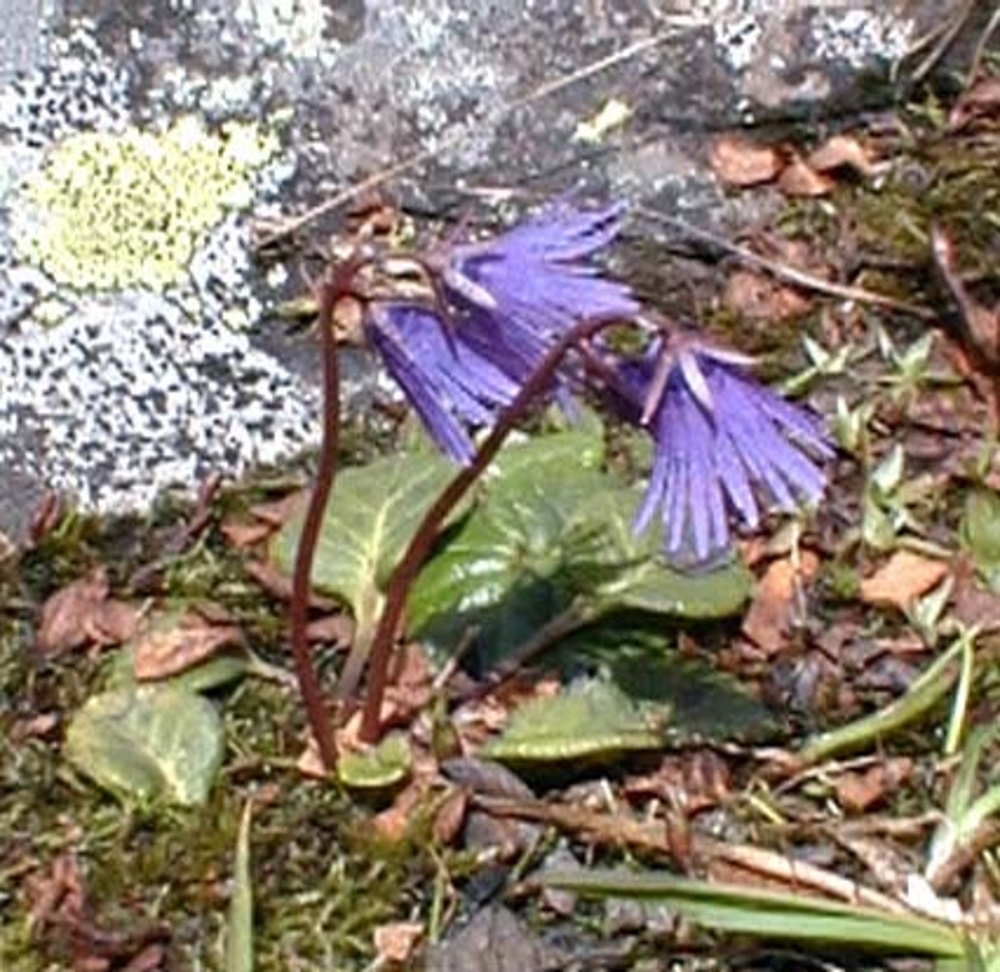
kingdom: Plantae
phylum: Tracheophyta
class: Magnoliopsida
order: Ericales
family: Primulaceae
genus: Soldanella
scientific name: Soldanella alpina
